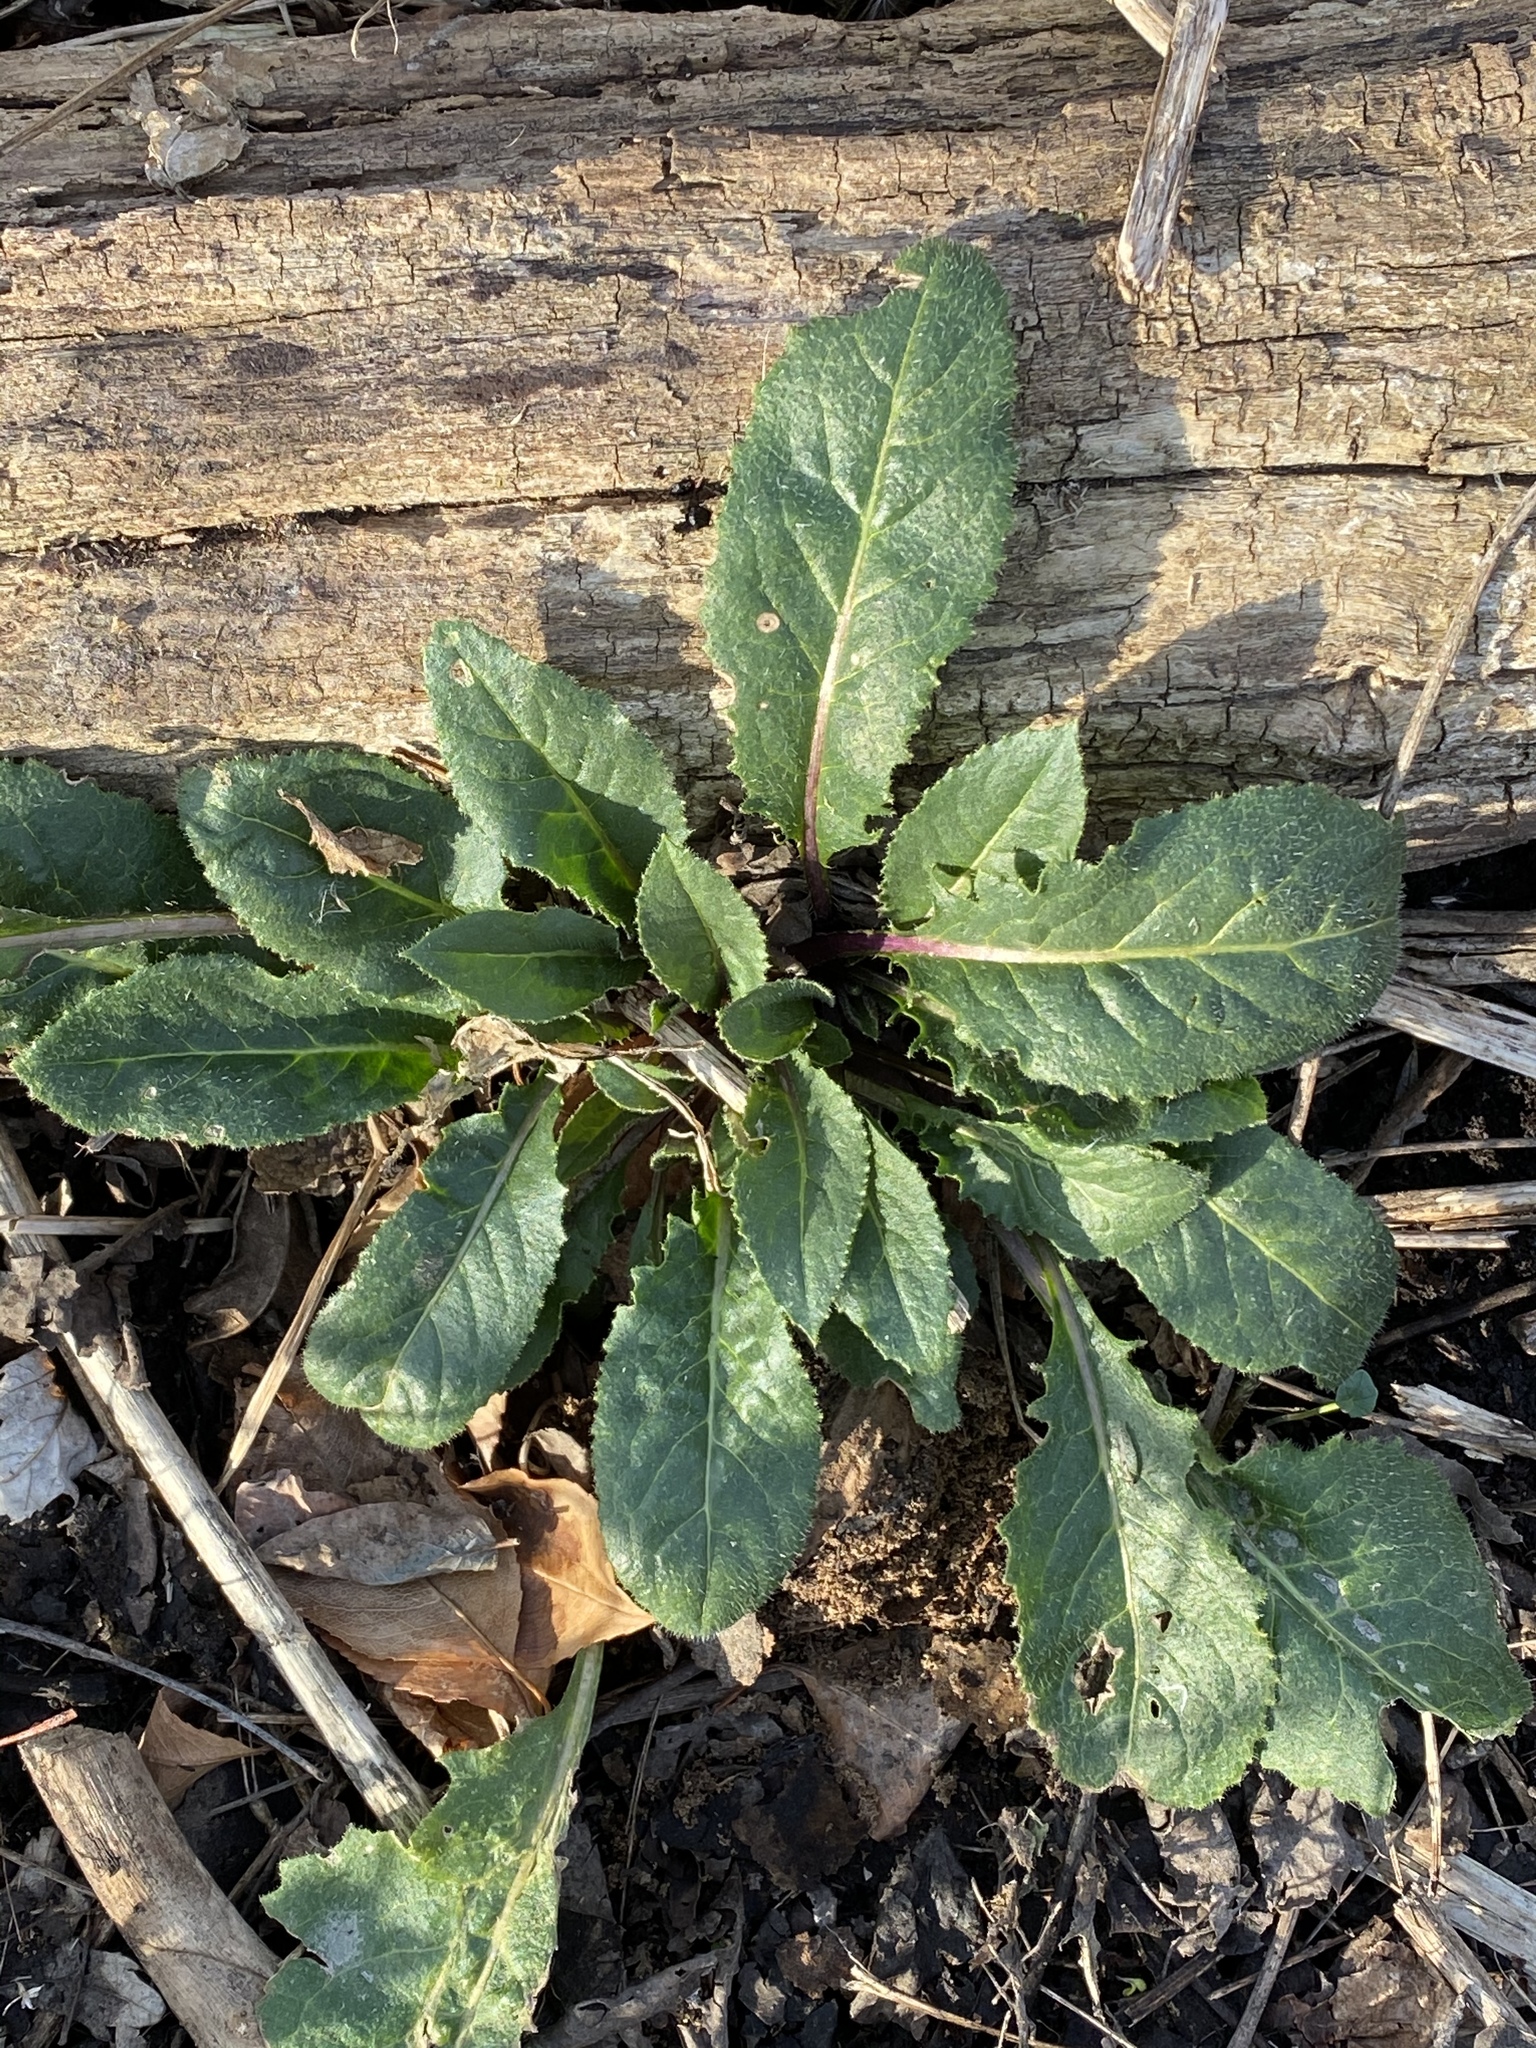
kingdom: Plantae
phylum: Tracheophyta
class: Magnoliopsida
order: Brassicales
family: Brassicaceae
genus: Hesperis
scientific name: Hesperis matronalis
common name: Dame's-violet
